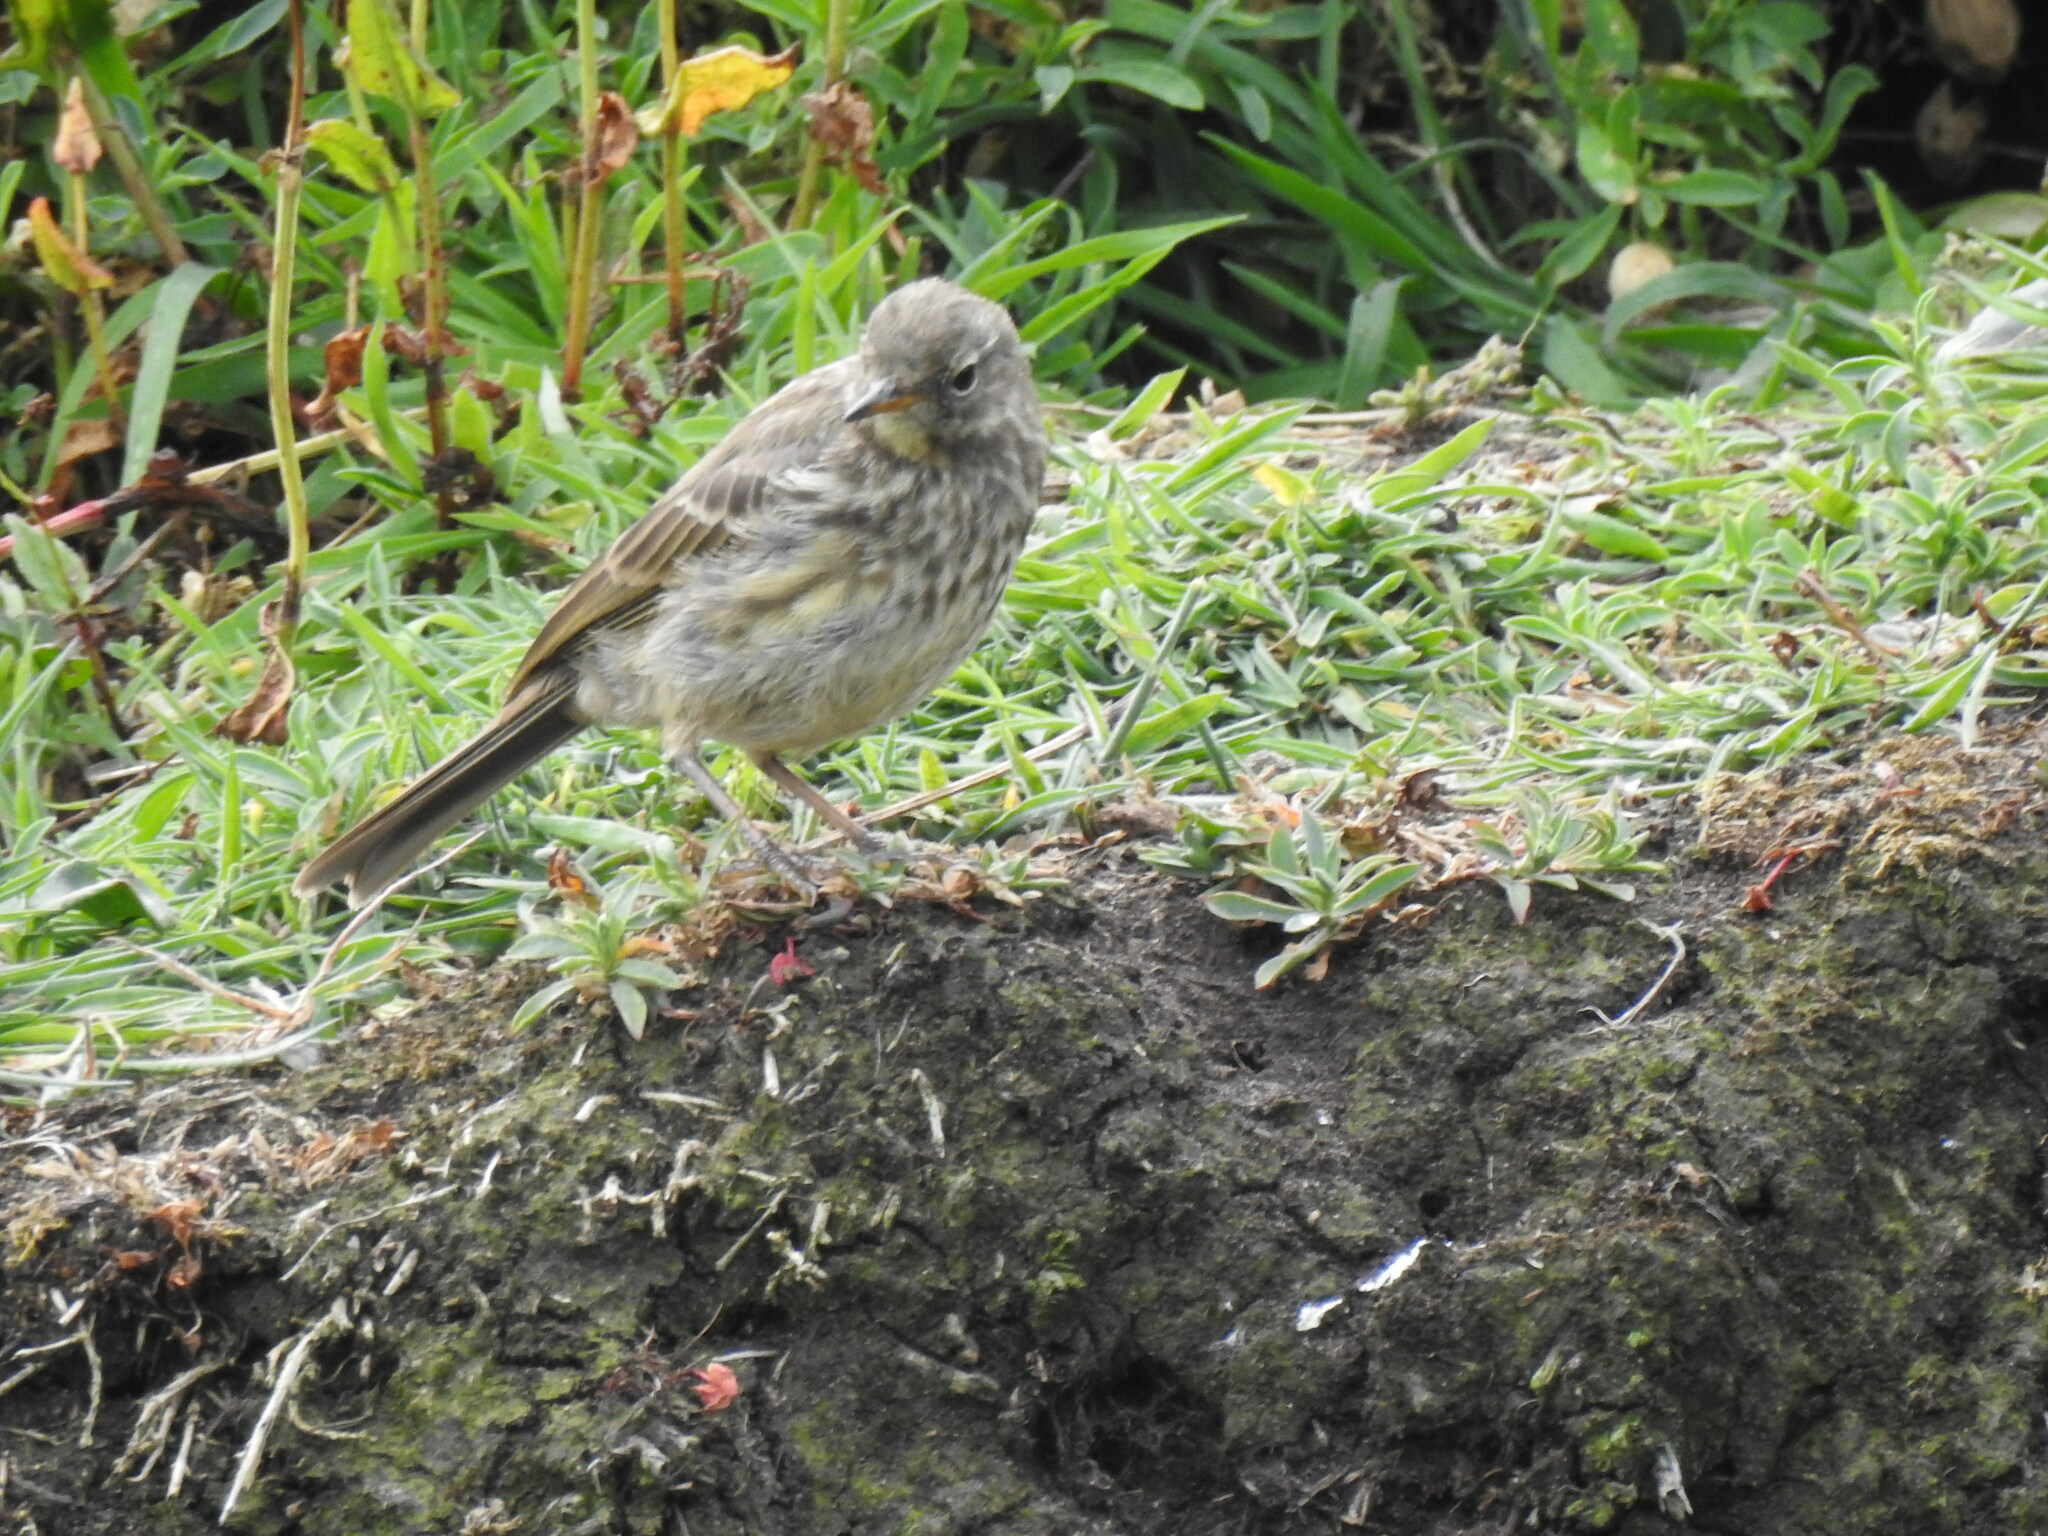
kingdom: Animalia
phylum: Chordata
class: Aves
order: Passeriformes
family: Motacillidae
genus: Anthus
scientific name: Anthus petrosus
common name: Eurasian rock pipit
